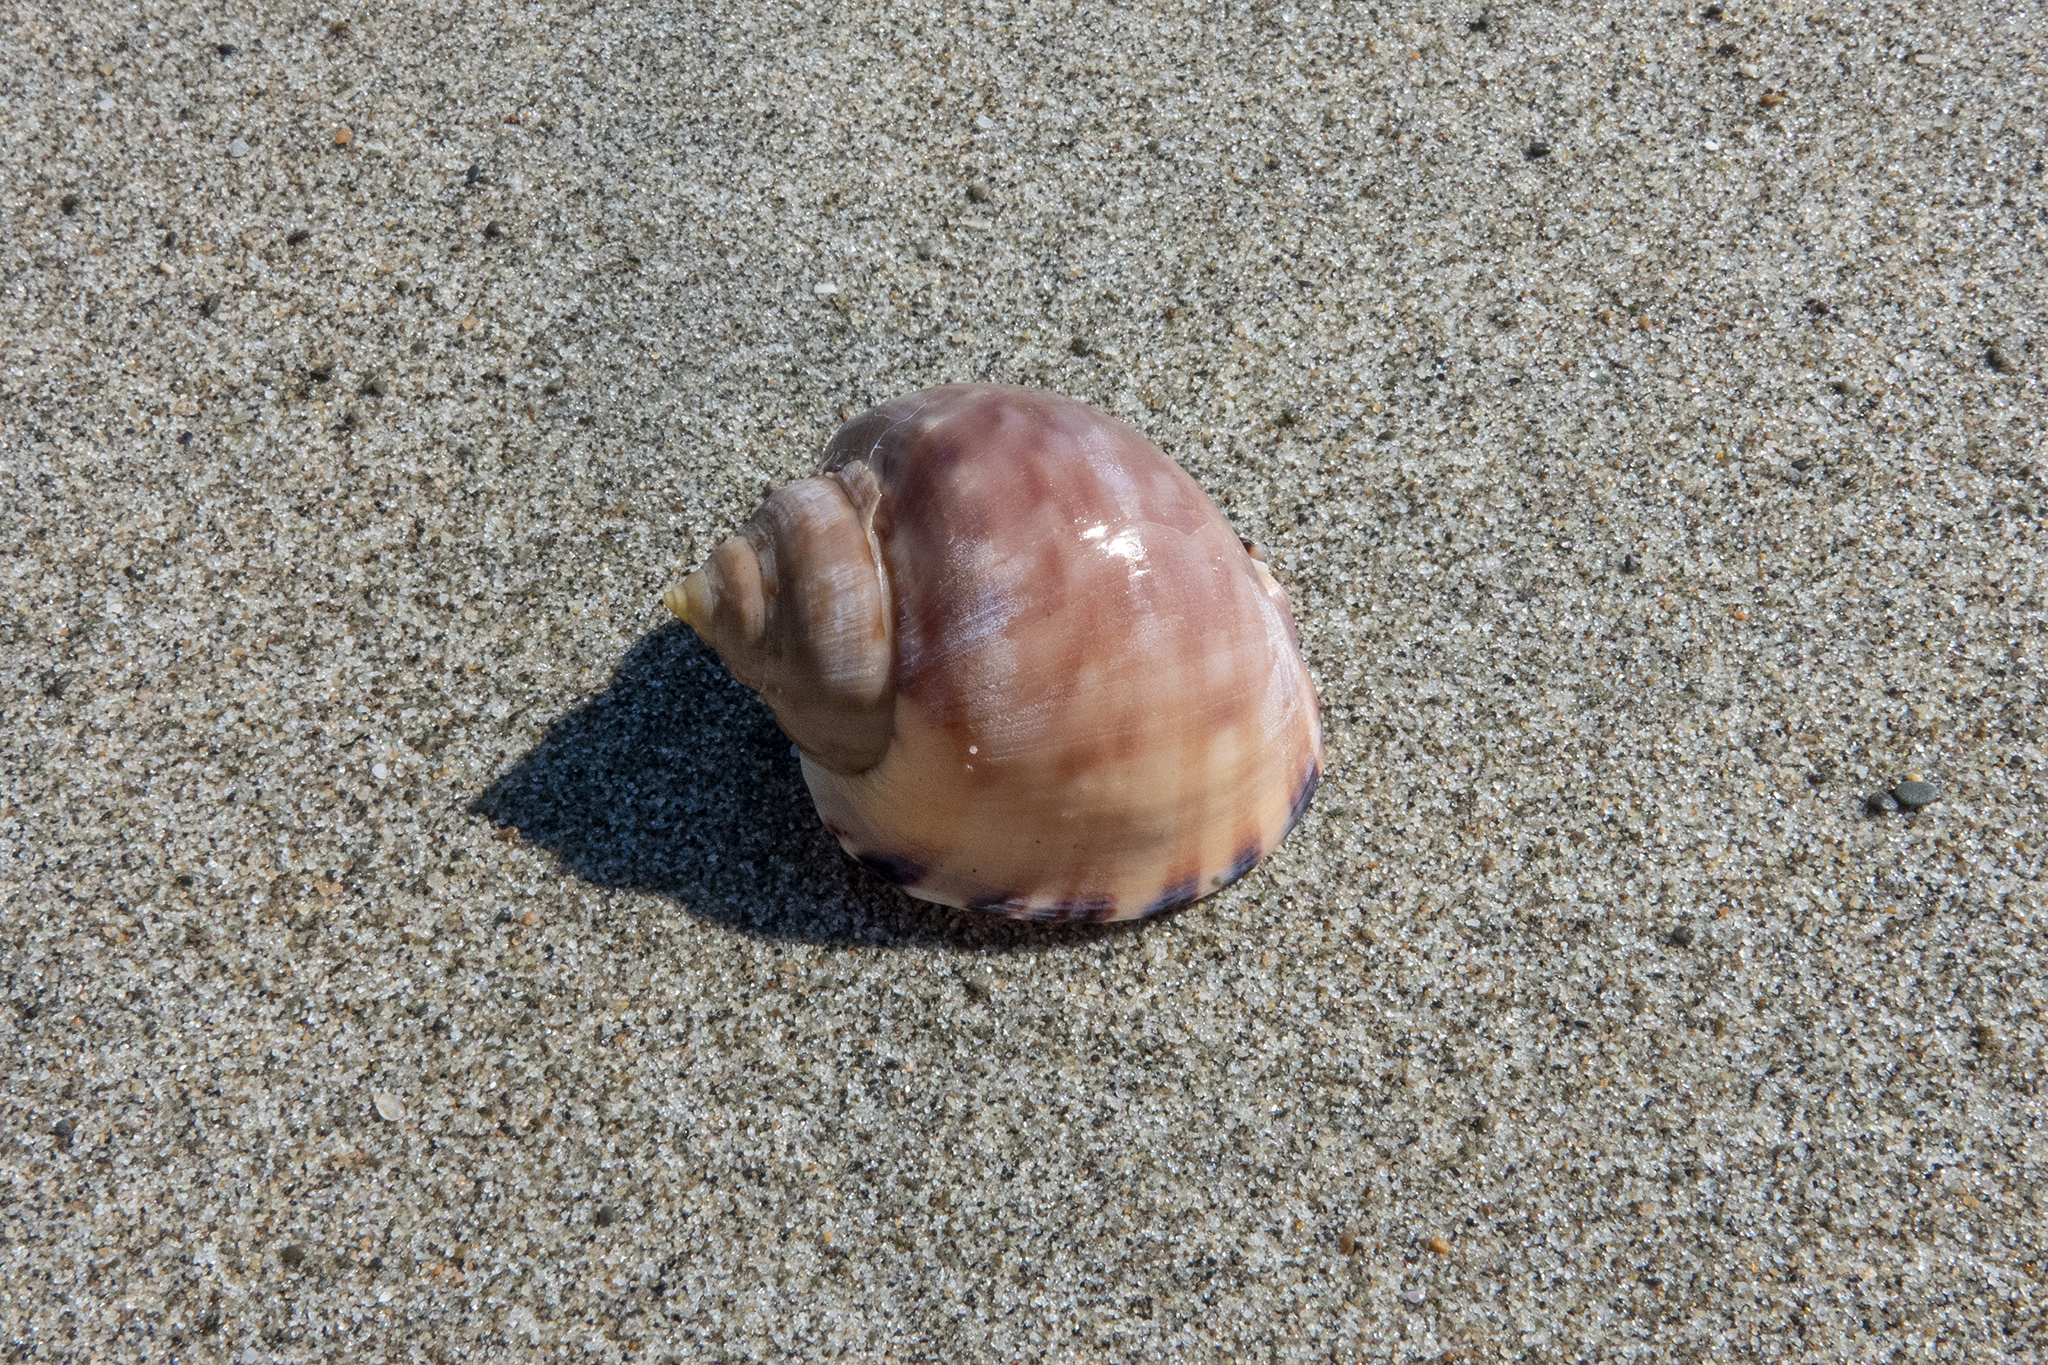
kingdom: Animalia
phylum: Mollusca
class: Gastropoda
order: Littorinimorpha
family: Cassidae
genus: Semicassis
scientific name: Semicassis pyrum
